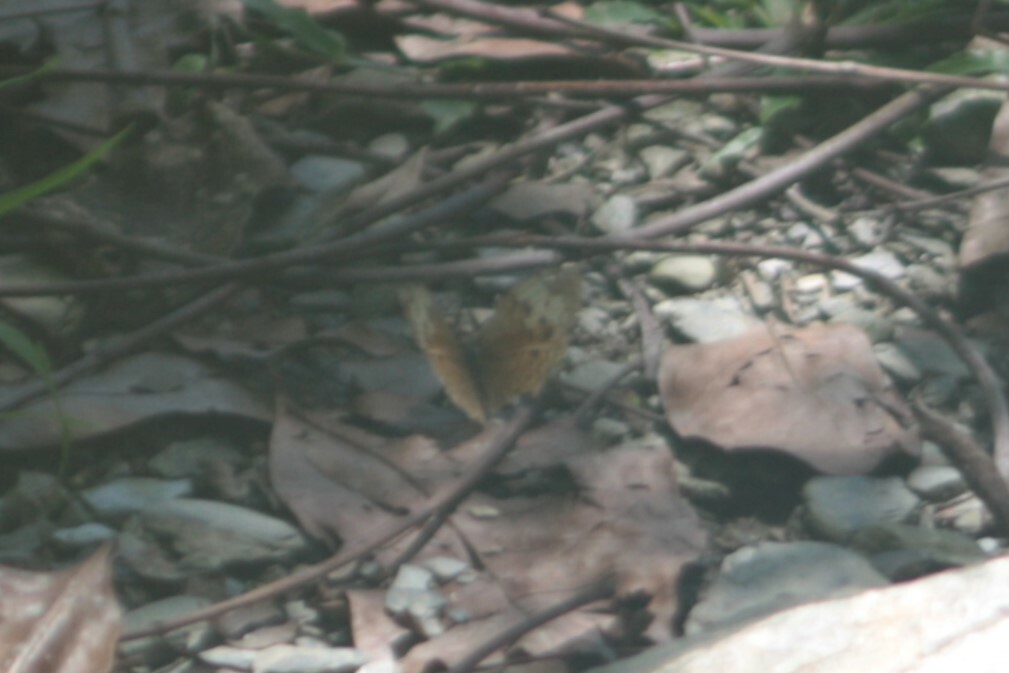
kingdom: Animalia
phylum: Arthropoda
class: Insecta
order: Lepidoptera
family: Nymphalidae
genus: Cupha
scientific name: Cupha erymanthis
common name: Rustic
